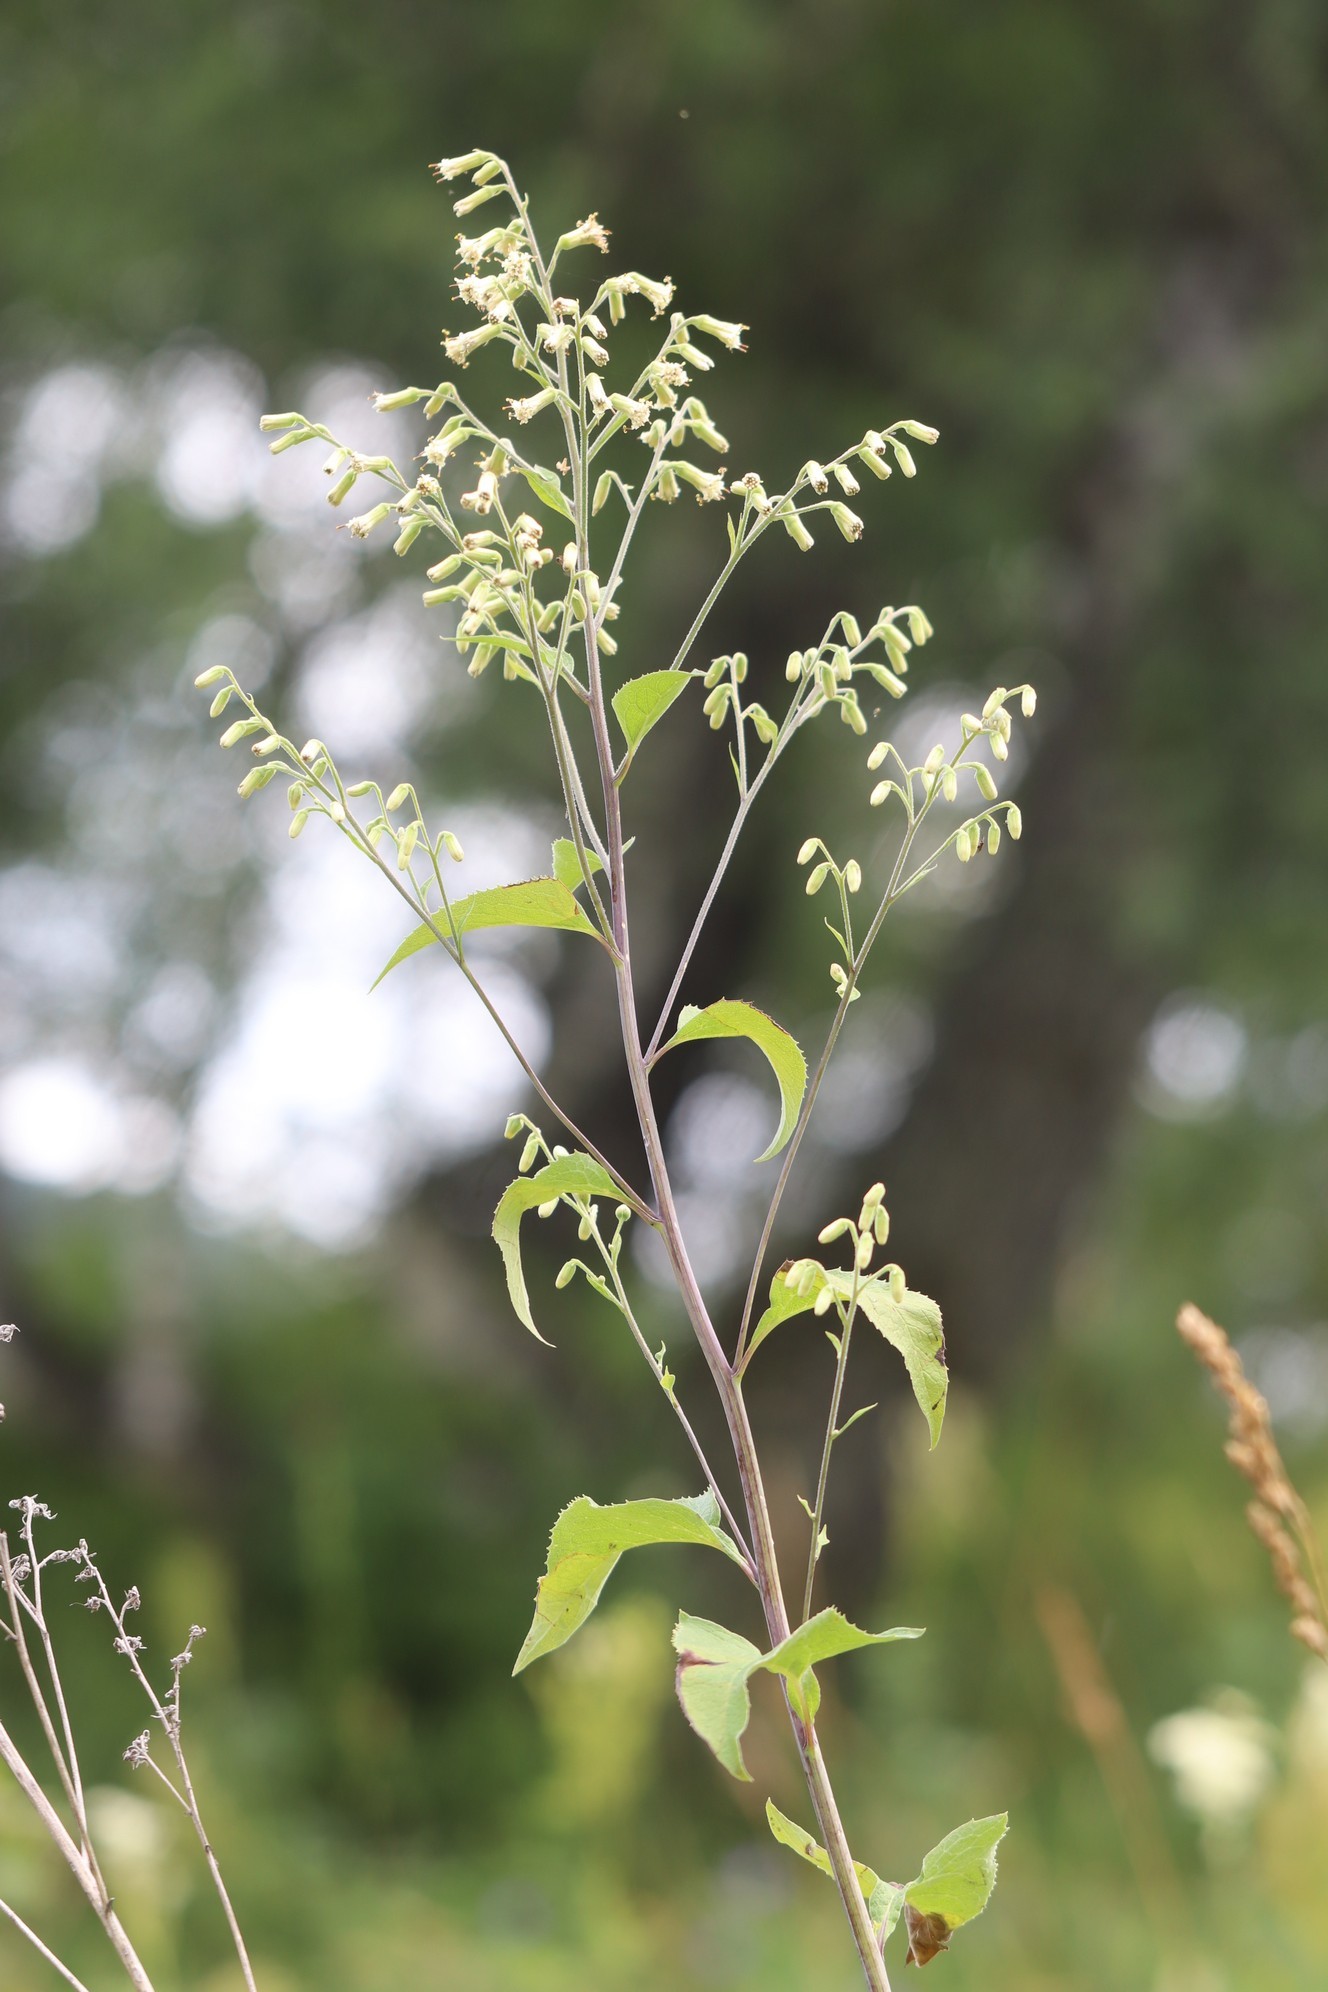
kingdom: Plantae
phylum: Tracheophyta
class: Magnoliopsida
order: Asterales
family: Asteraceae
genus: Parasenecio
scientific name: Parasenecio hastatus
